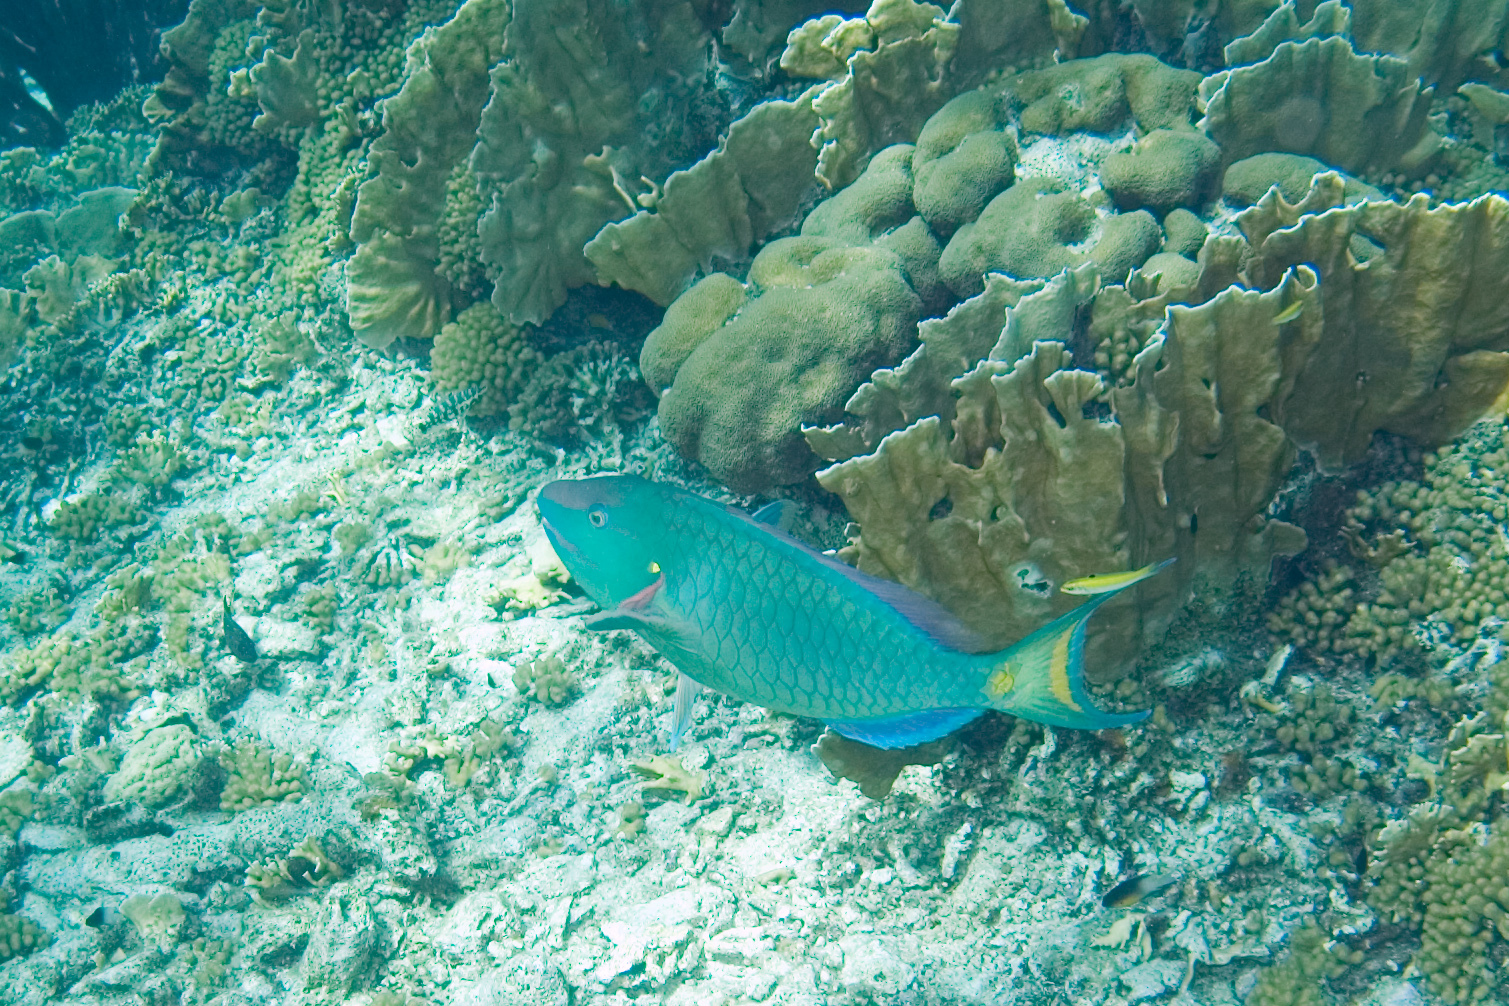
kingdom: Animalia
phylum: Chordata
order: Perciformes
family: Scaridae
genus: Sparisoma
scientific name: Sparisoma viride
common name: Stoplight parrotfish
